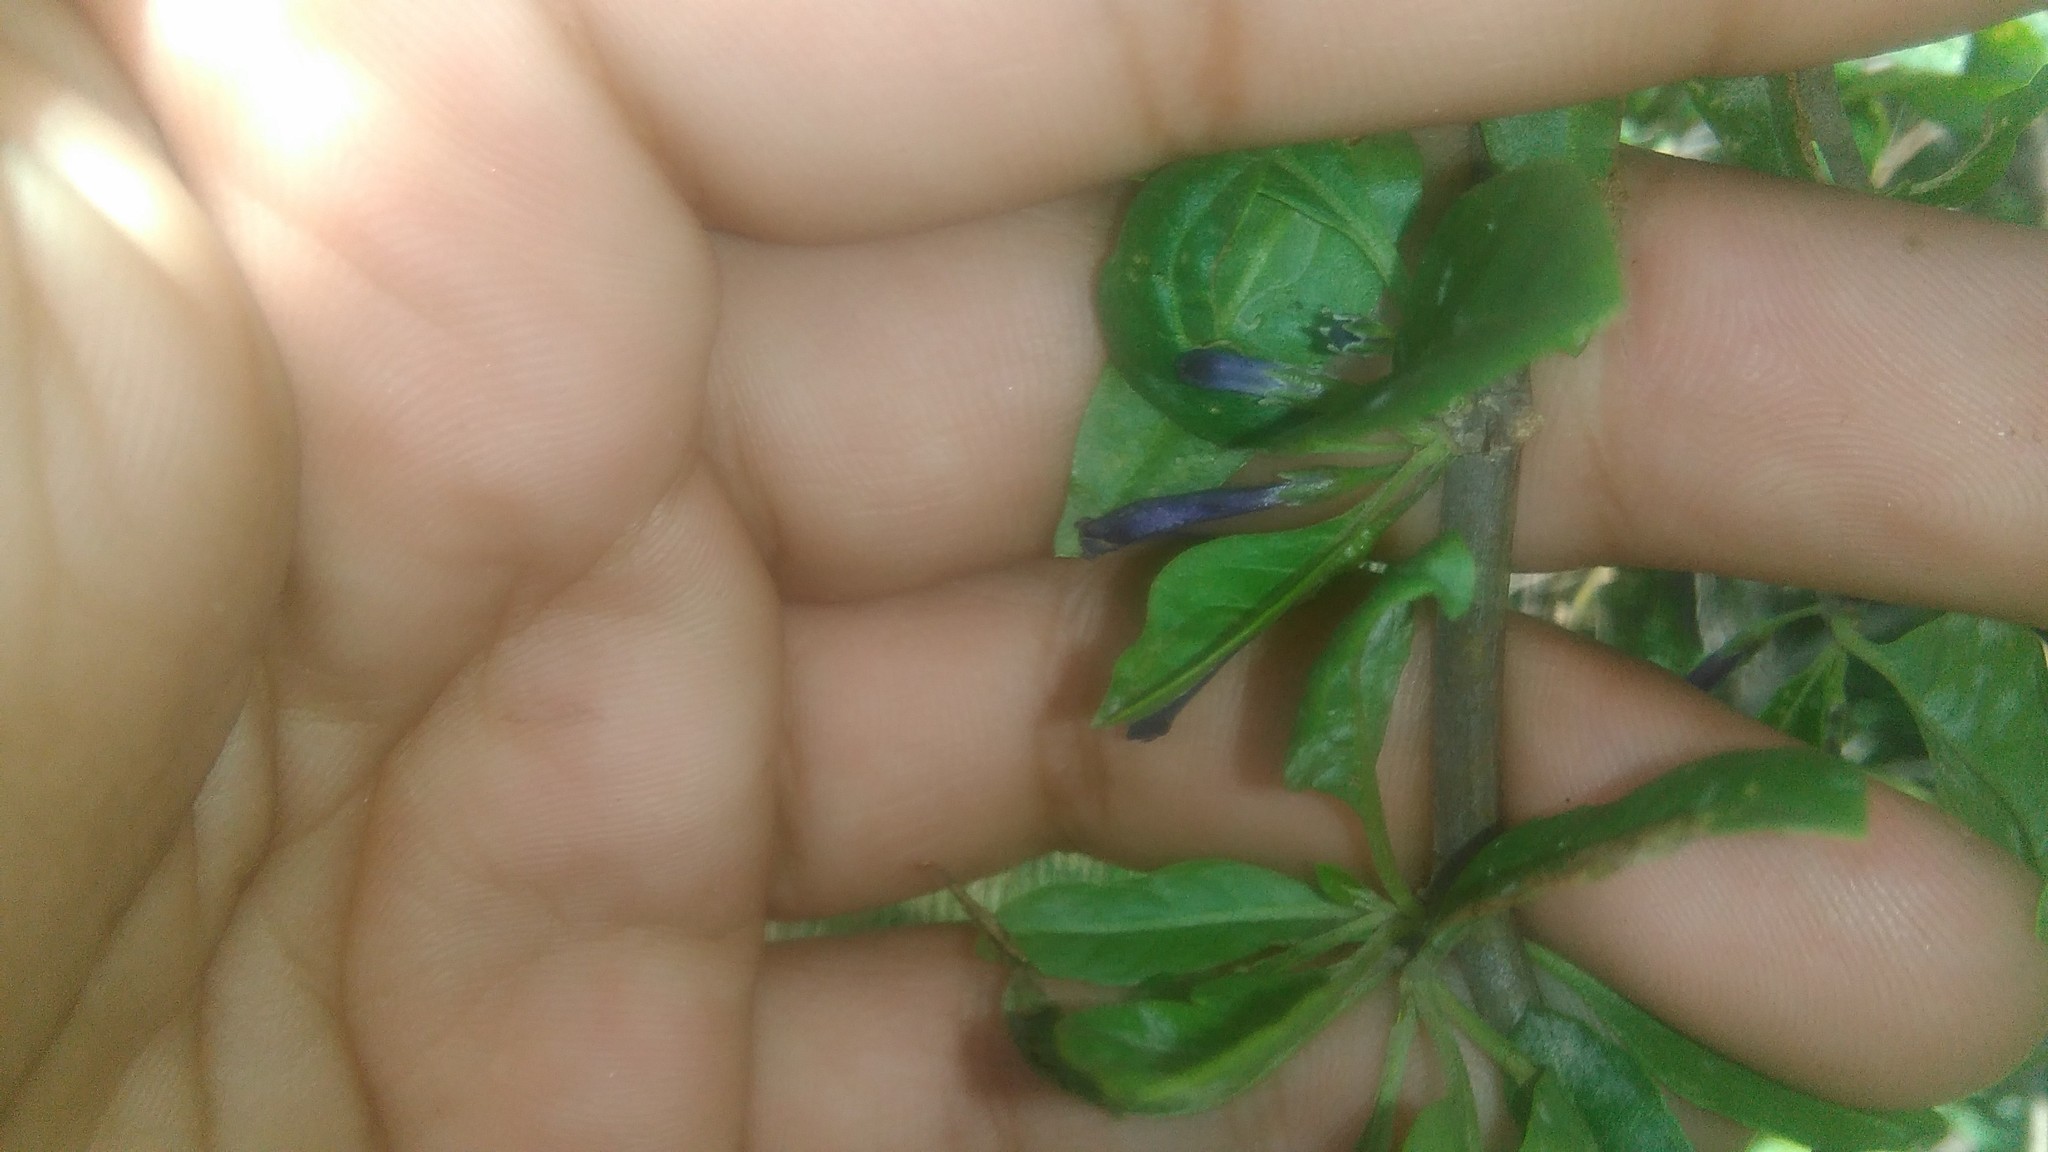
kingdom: Plantae
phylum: Tracheophyta
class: Magnoliopsida
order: Solanales
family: Solanaceae
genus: Lycium
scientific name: Lycium cestroides
